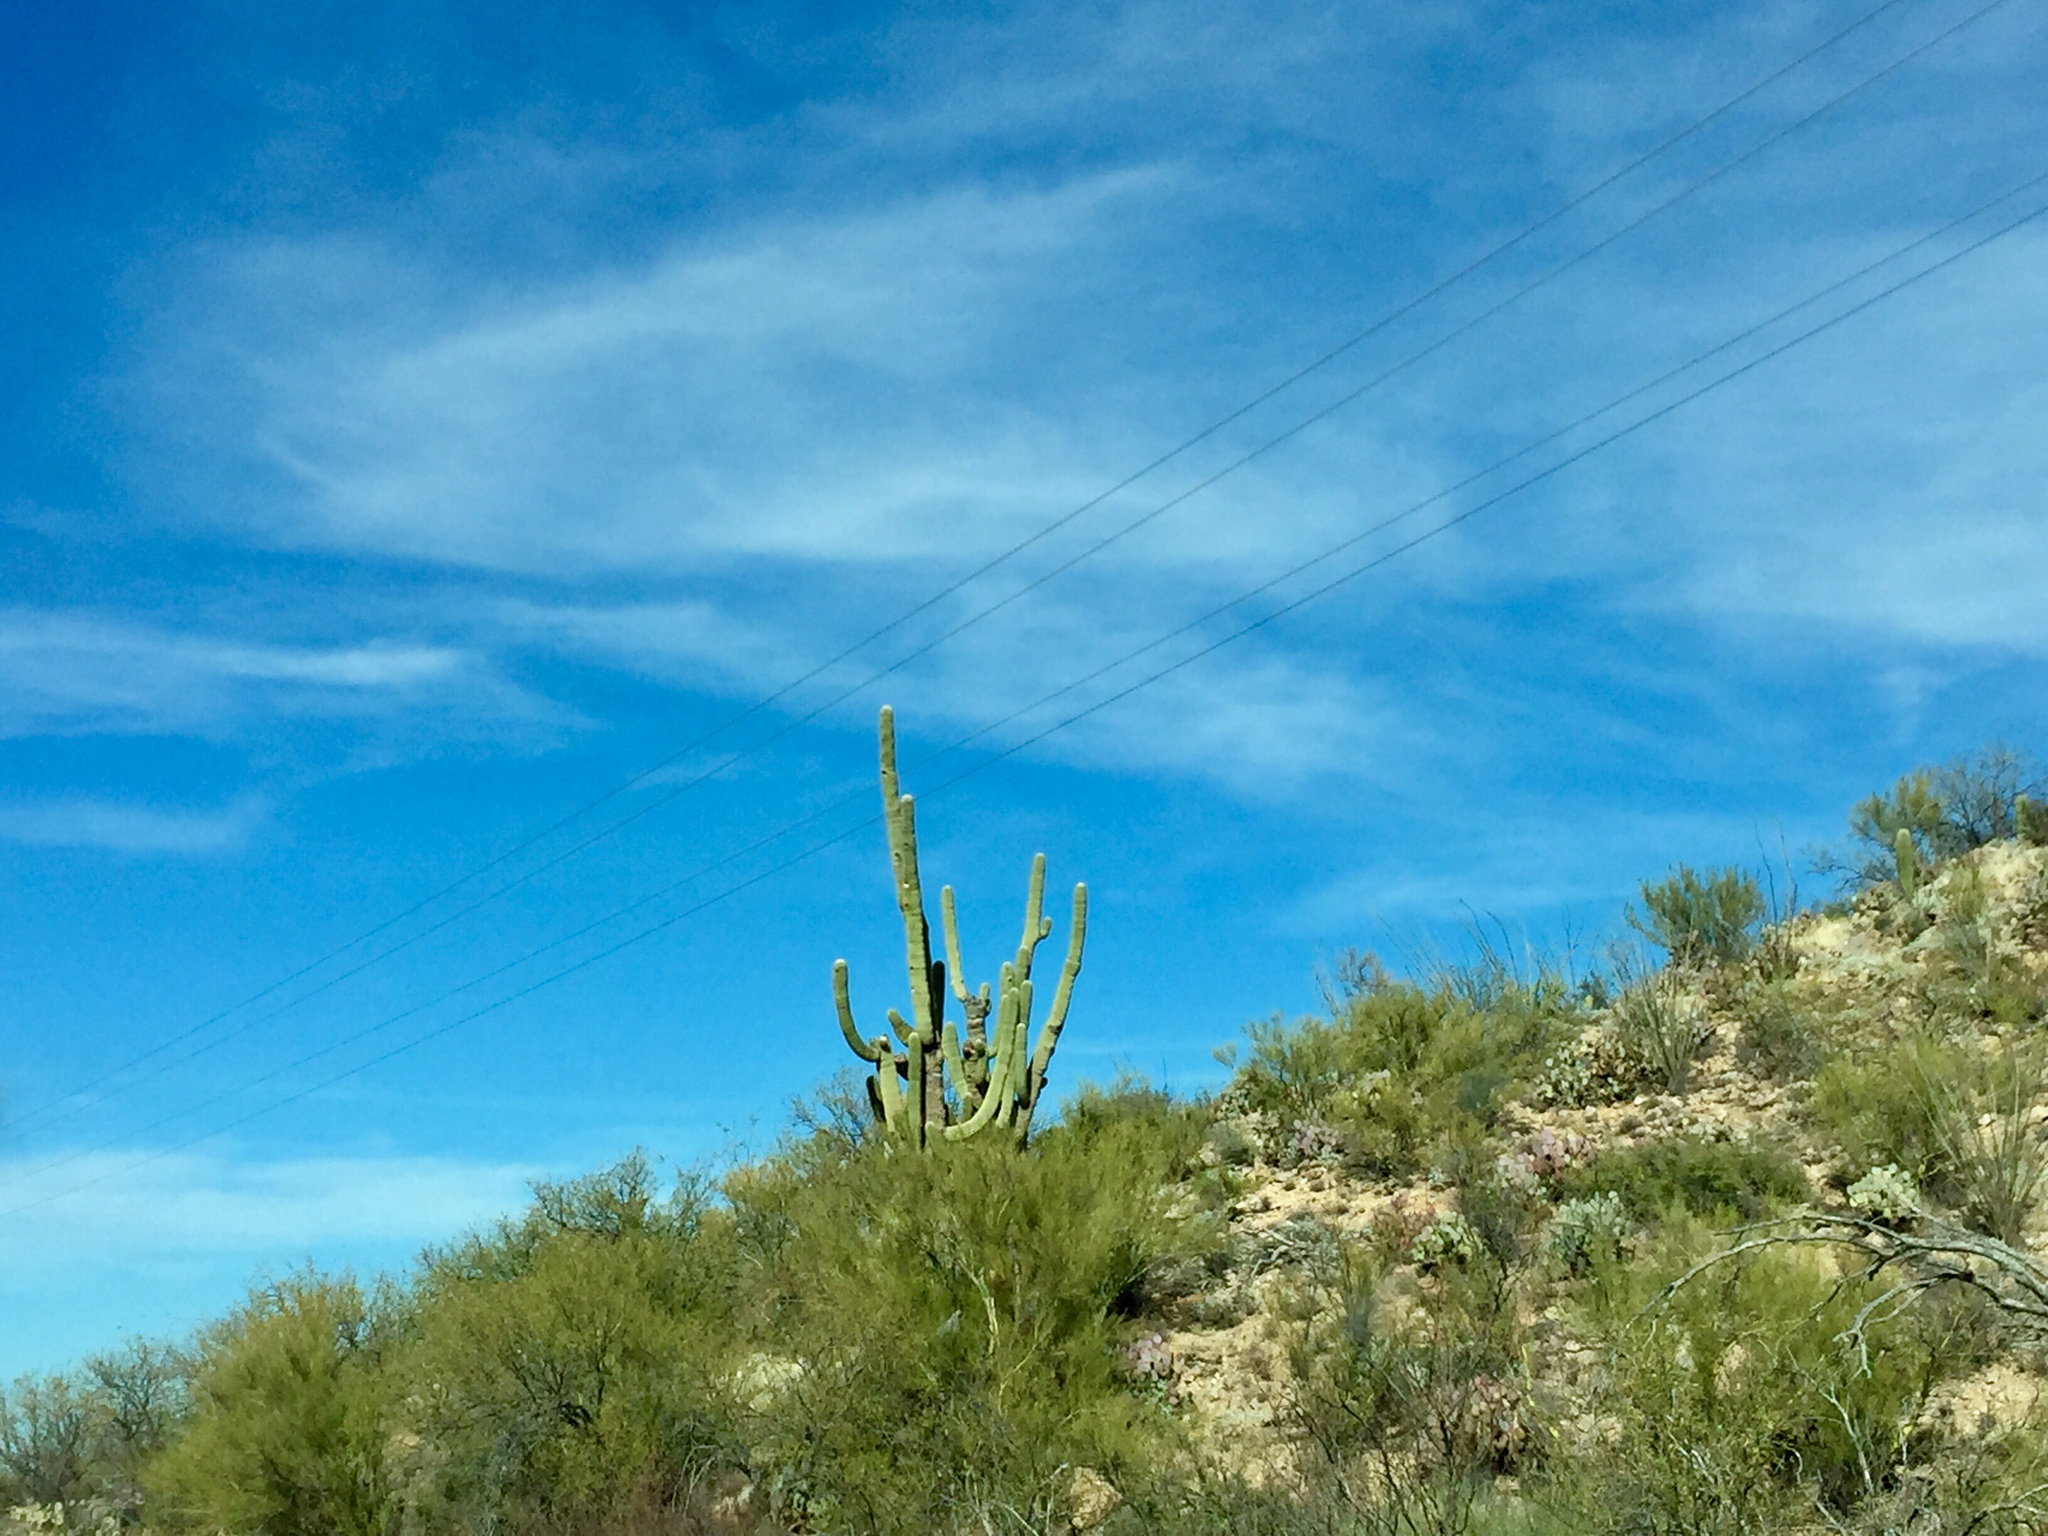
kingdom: Plantae
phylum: Tracheophyta
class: Magnoliopsida
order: Caryophyllales
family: Cactaceae
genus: Carnegiea
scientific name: Carnegiea gigantea
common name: Saguaro
